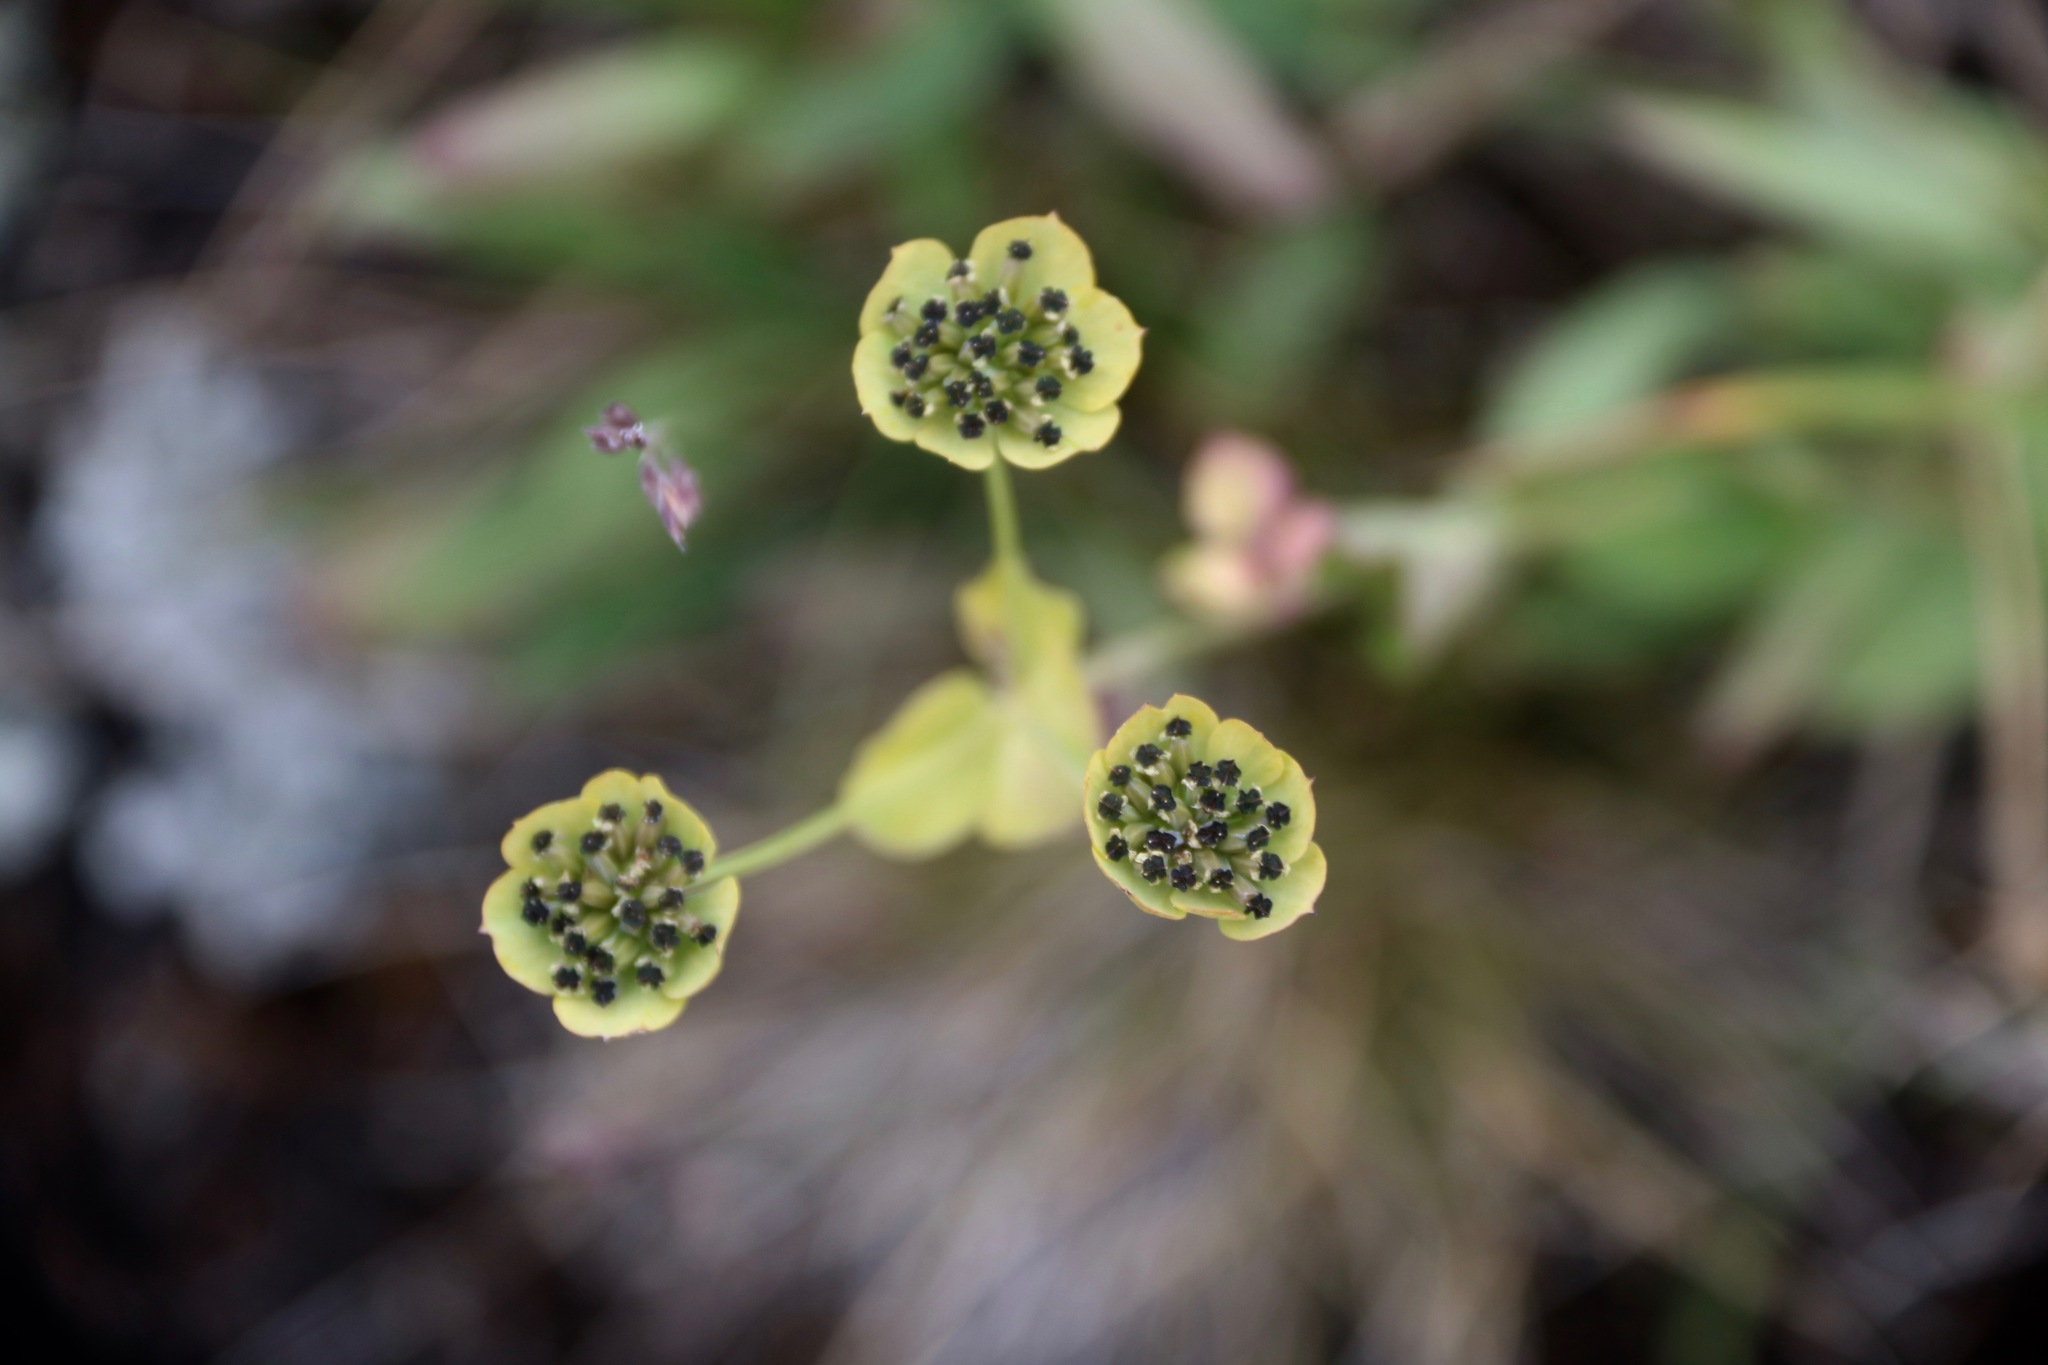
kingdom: Plantae
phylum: Tracheophyta
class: Magnoliopsida
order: Apiales
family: Apiaceae
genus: Bupleurum
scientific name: Bupleurum triradiatum
